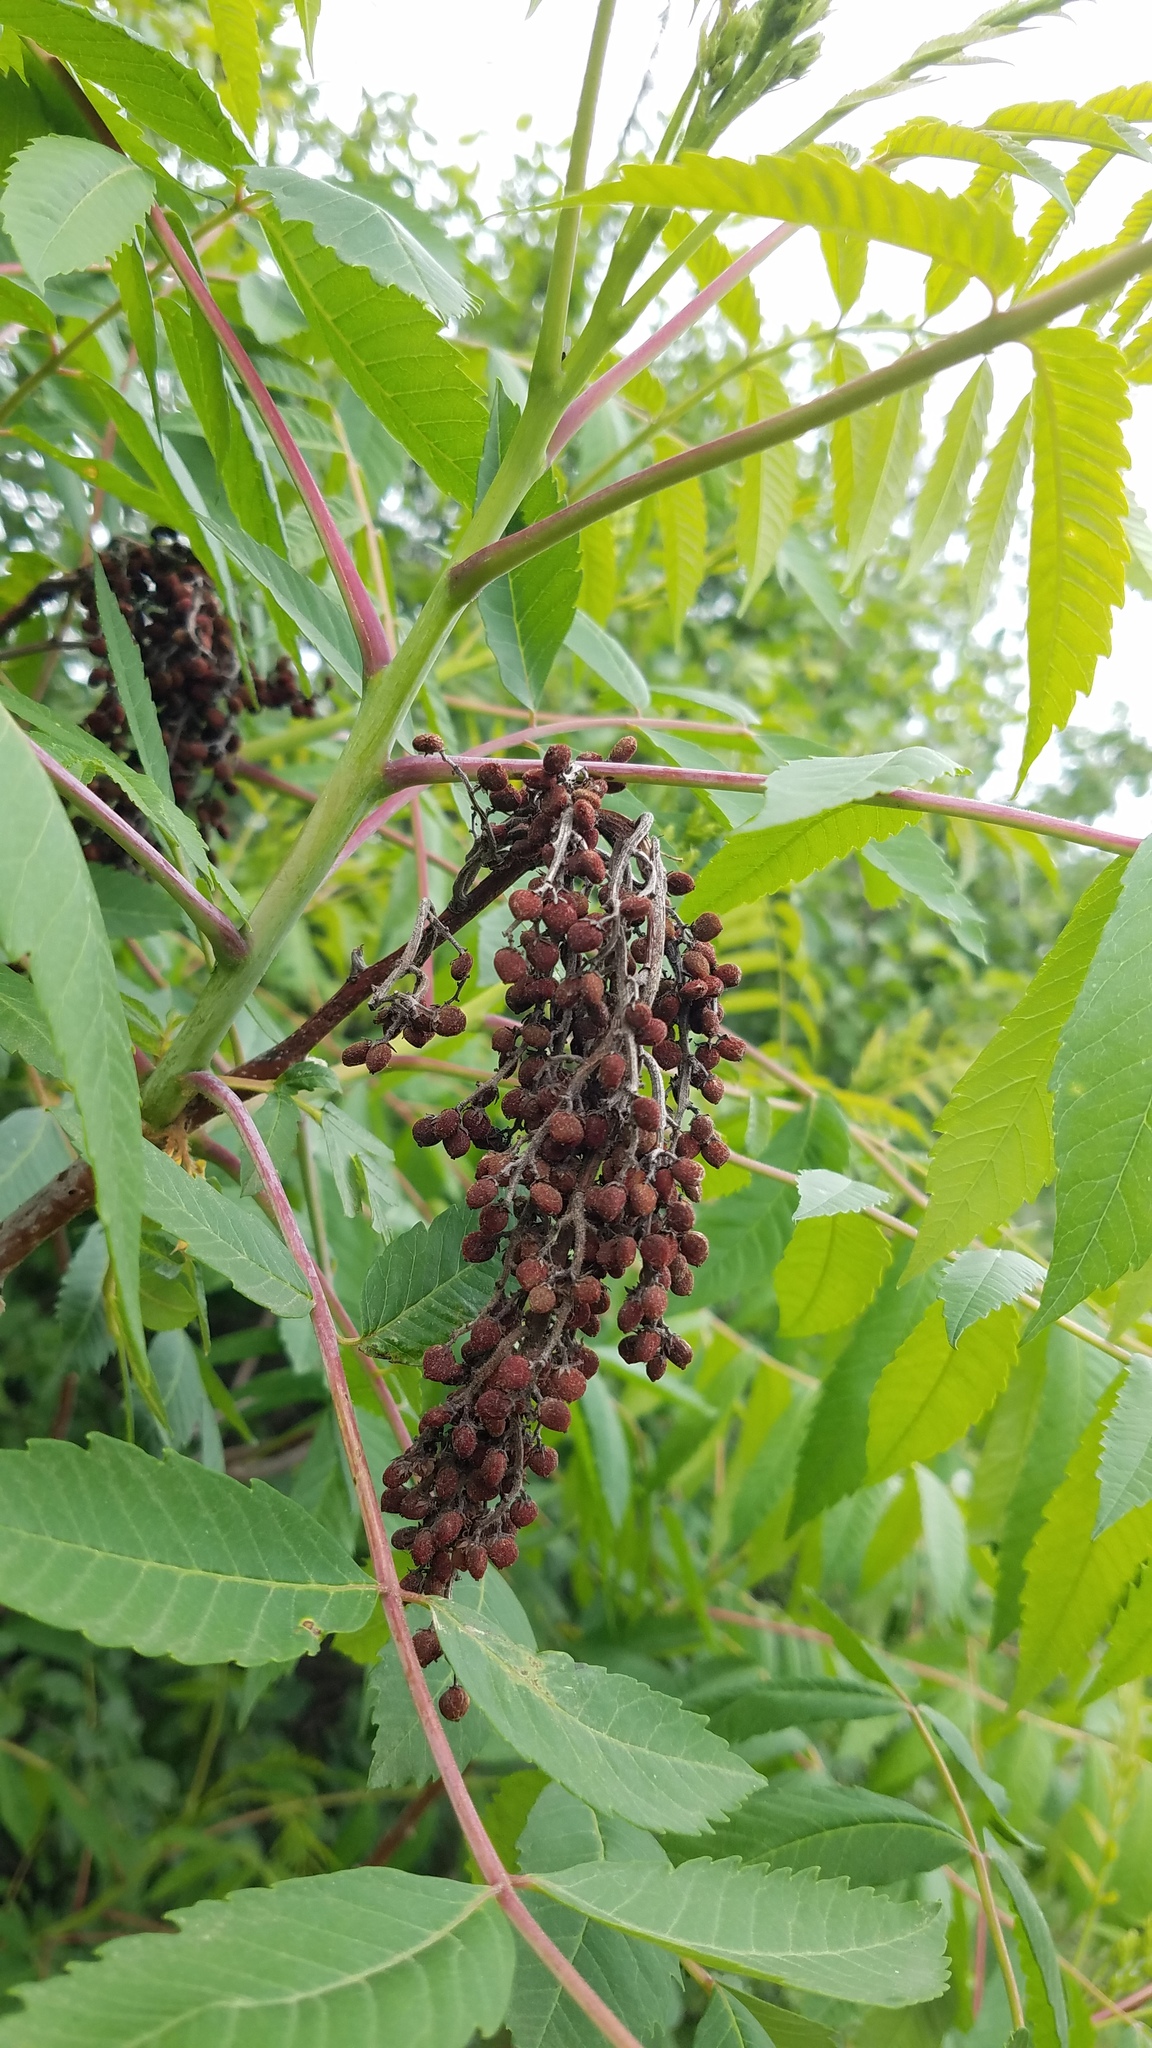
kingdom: Plantae
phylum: Tracheophyta
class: Magnoliopsida
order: Sapindales
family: Anacardiaceae
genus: Rhus
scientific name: Rhus glabra
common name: Scarlet sumac
